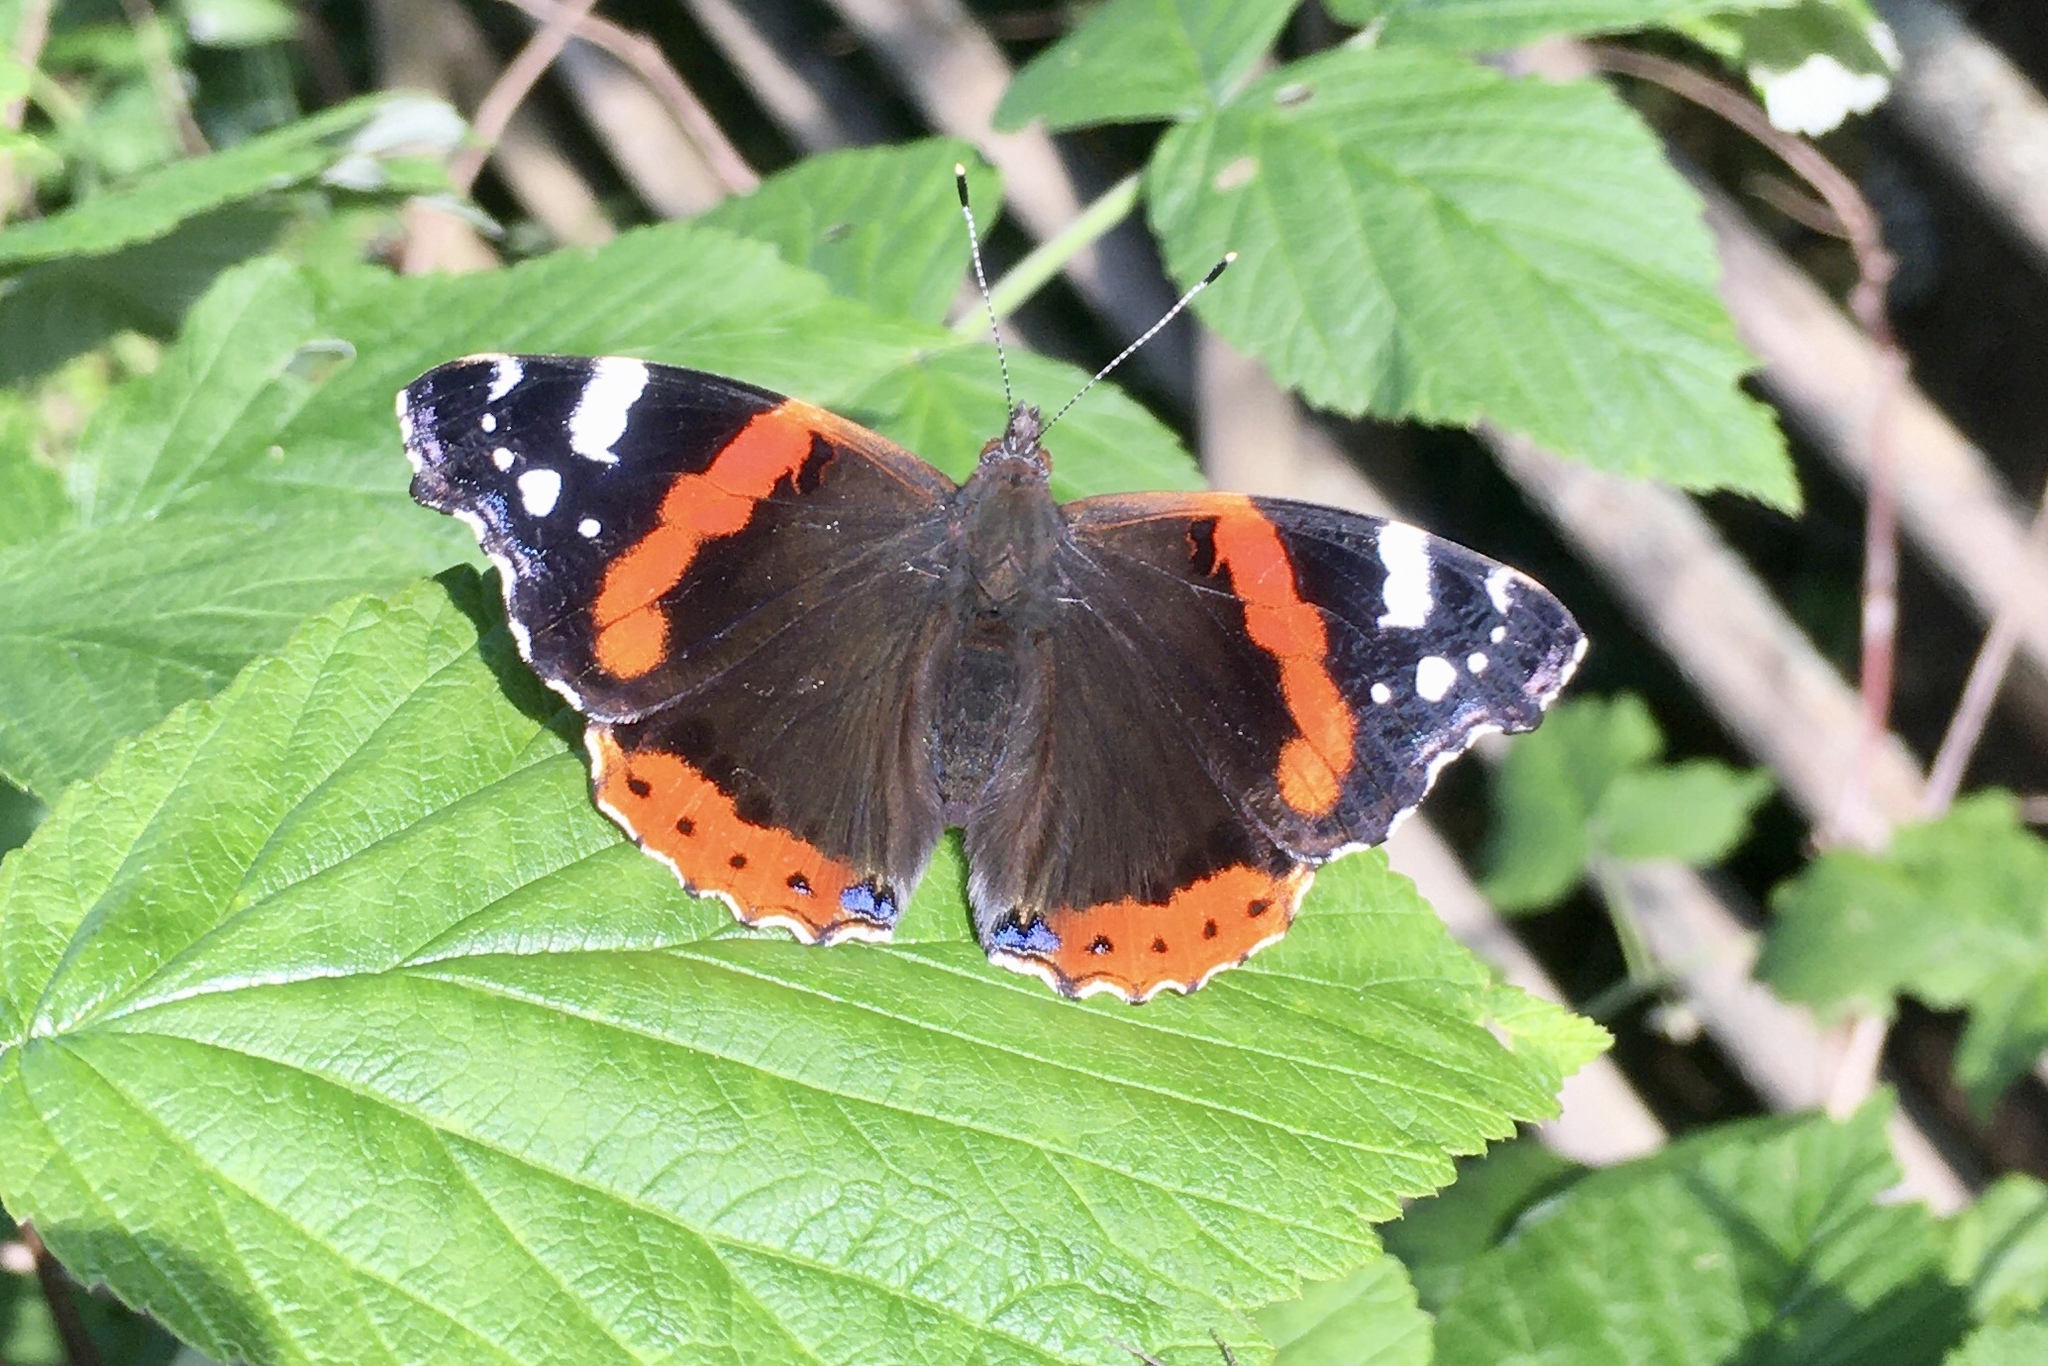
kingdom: Animalia
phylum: Arthropoda
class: Insecta
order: Lepidoptera
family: Nymphalidae
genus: Vanessa
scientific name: Vanessa atalanta
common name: Red admiral
